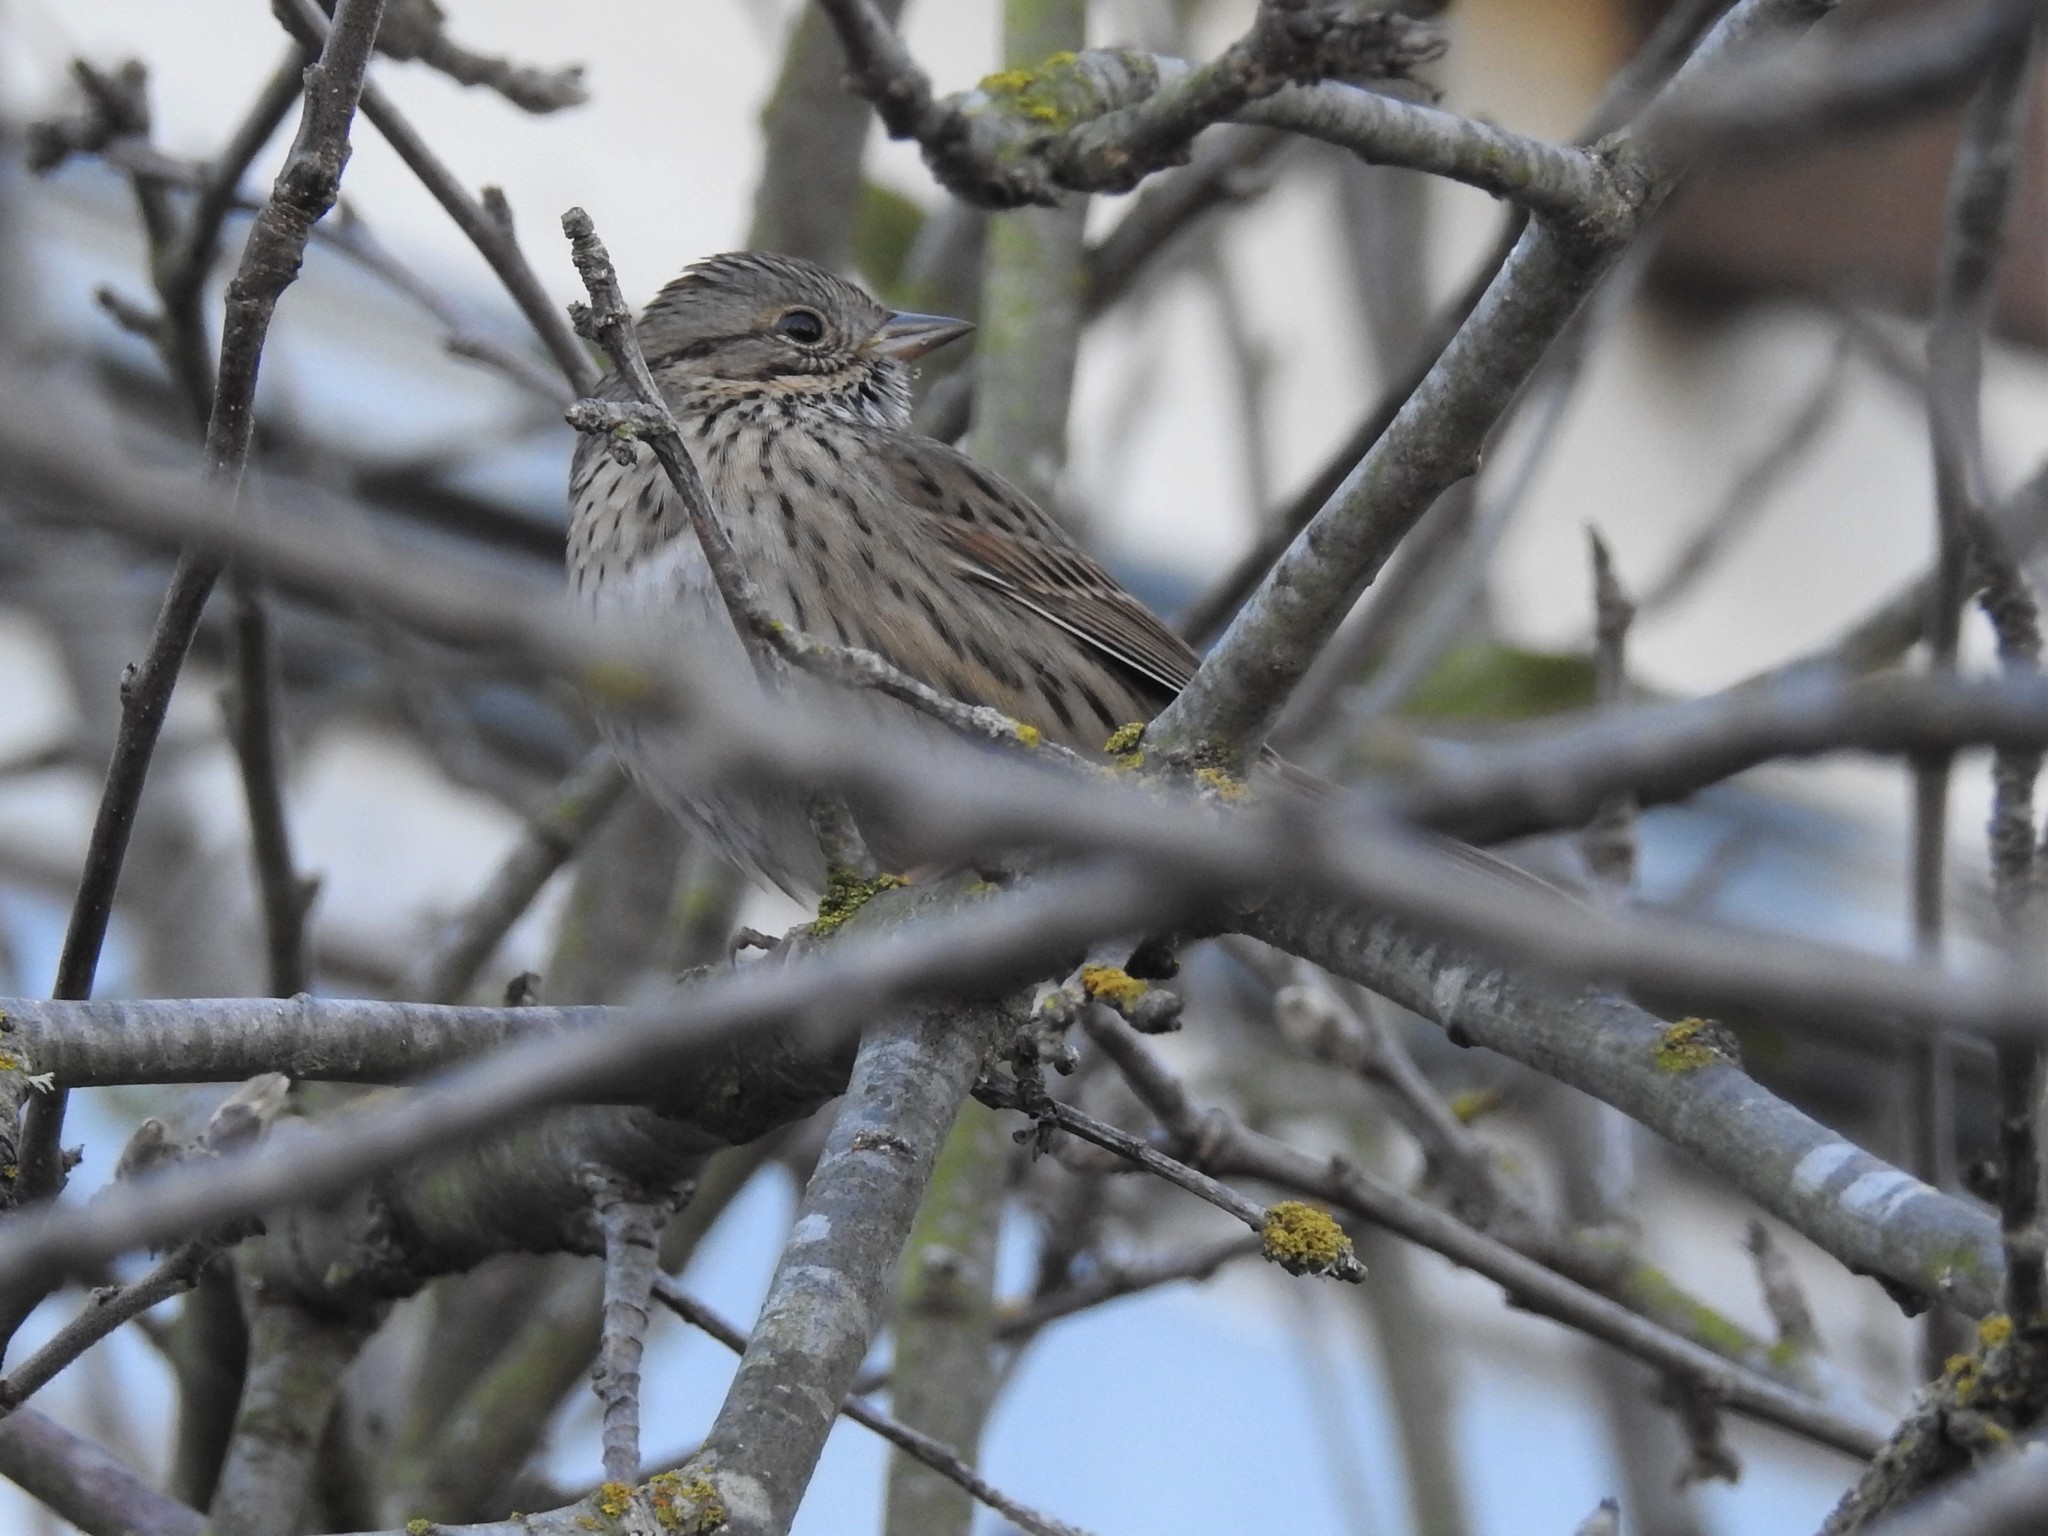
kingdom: Animalia
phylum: Chordata
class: Aves
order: Passeriformes
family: Passerellidae
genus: Melospiza
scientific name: Melospiza lincolnii
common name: Lincoln's sparrow
